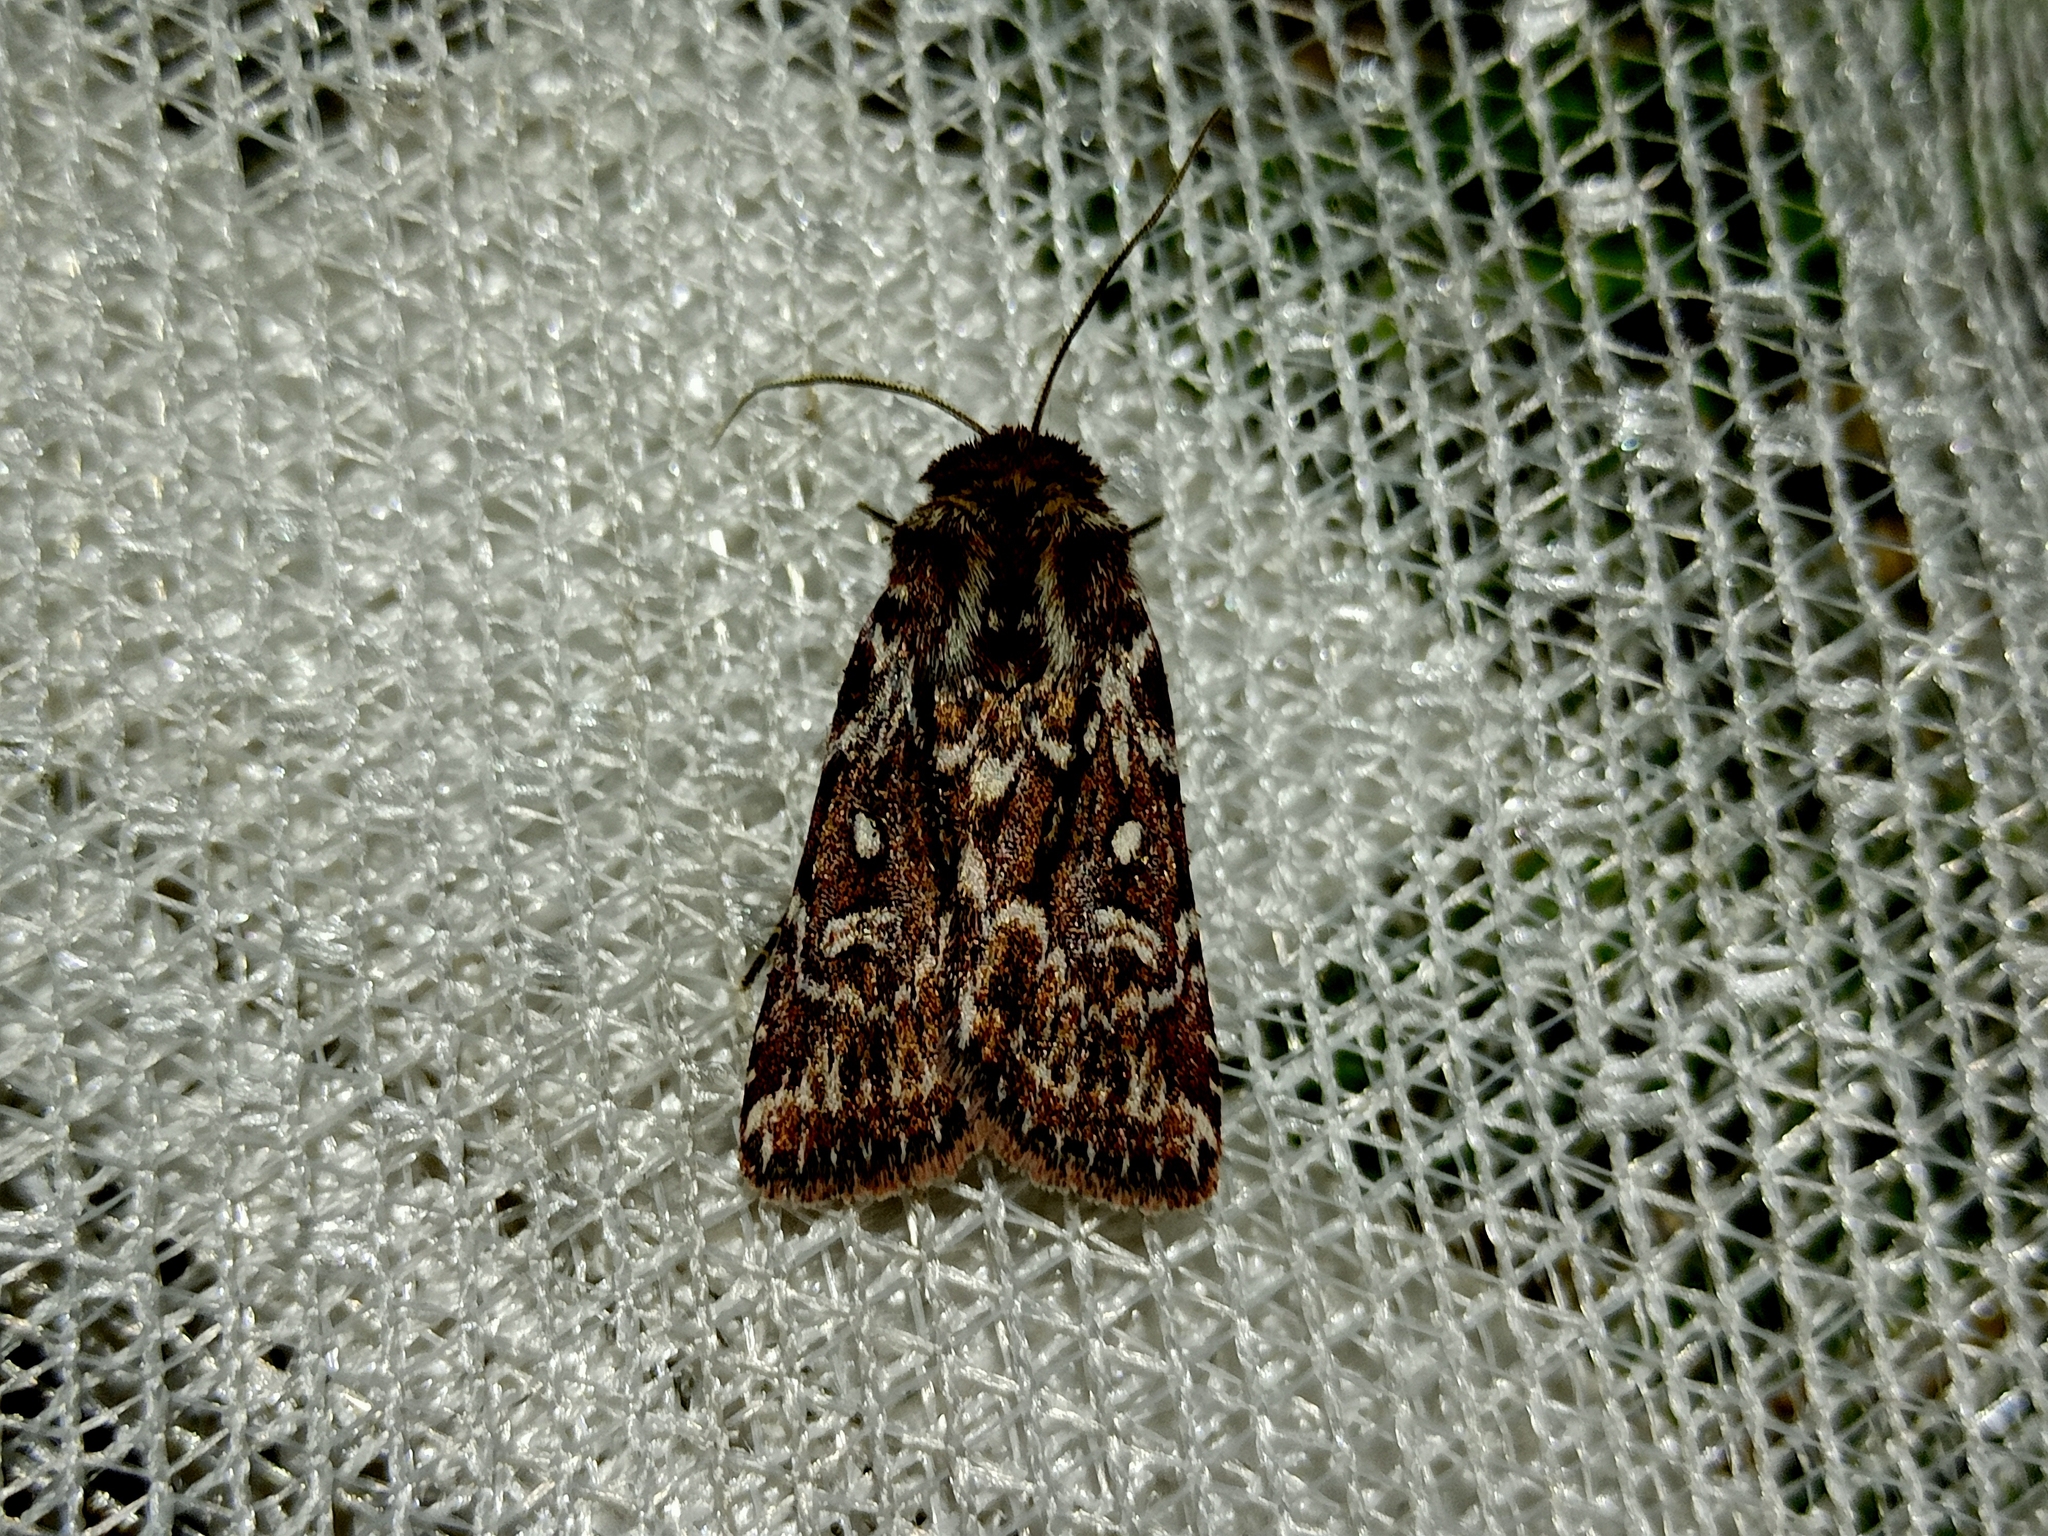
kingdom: Animalia
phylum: Arthropoda
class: Insecta
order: Lepidoptera
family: Noctuidae
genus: Lycophotia
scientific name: Lycophotia porphyrea
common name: True lover's knot
